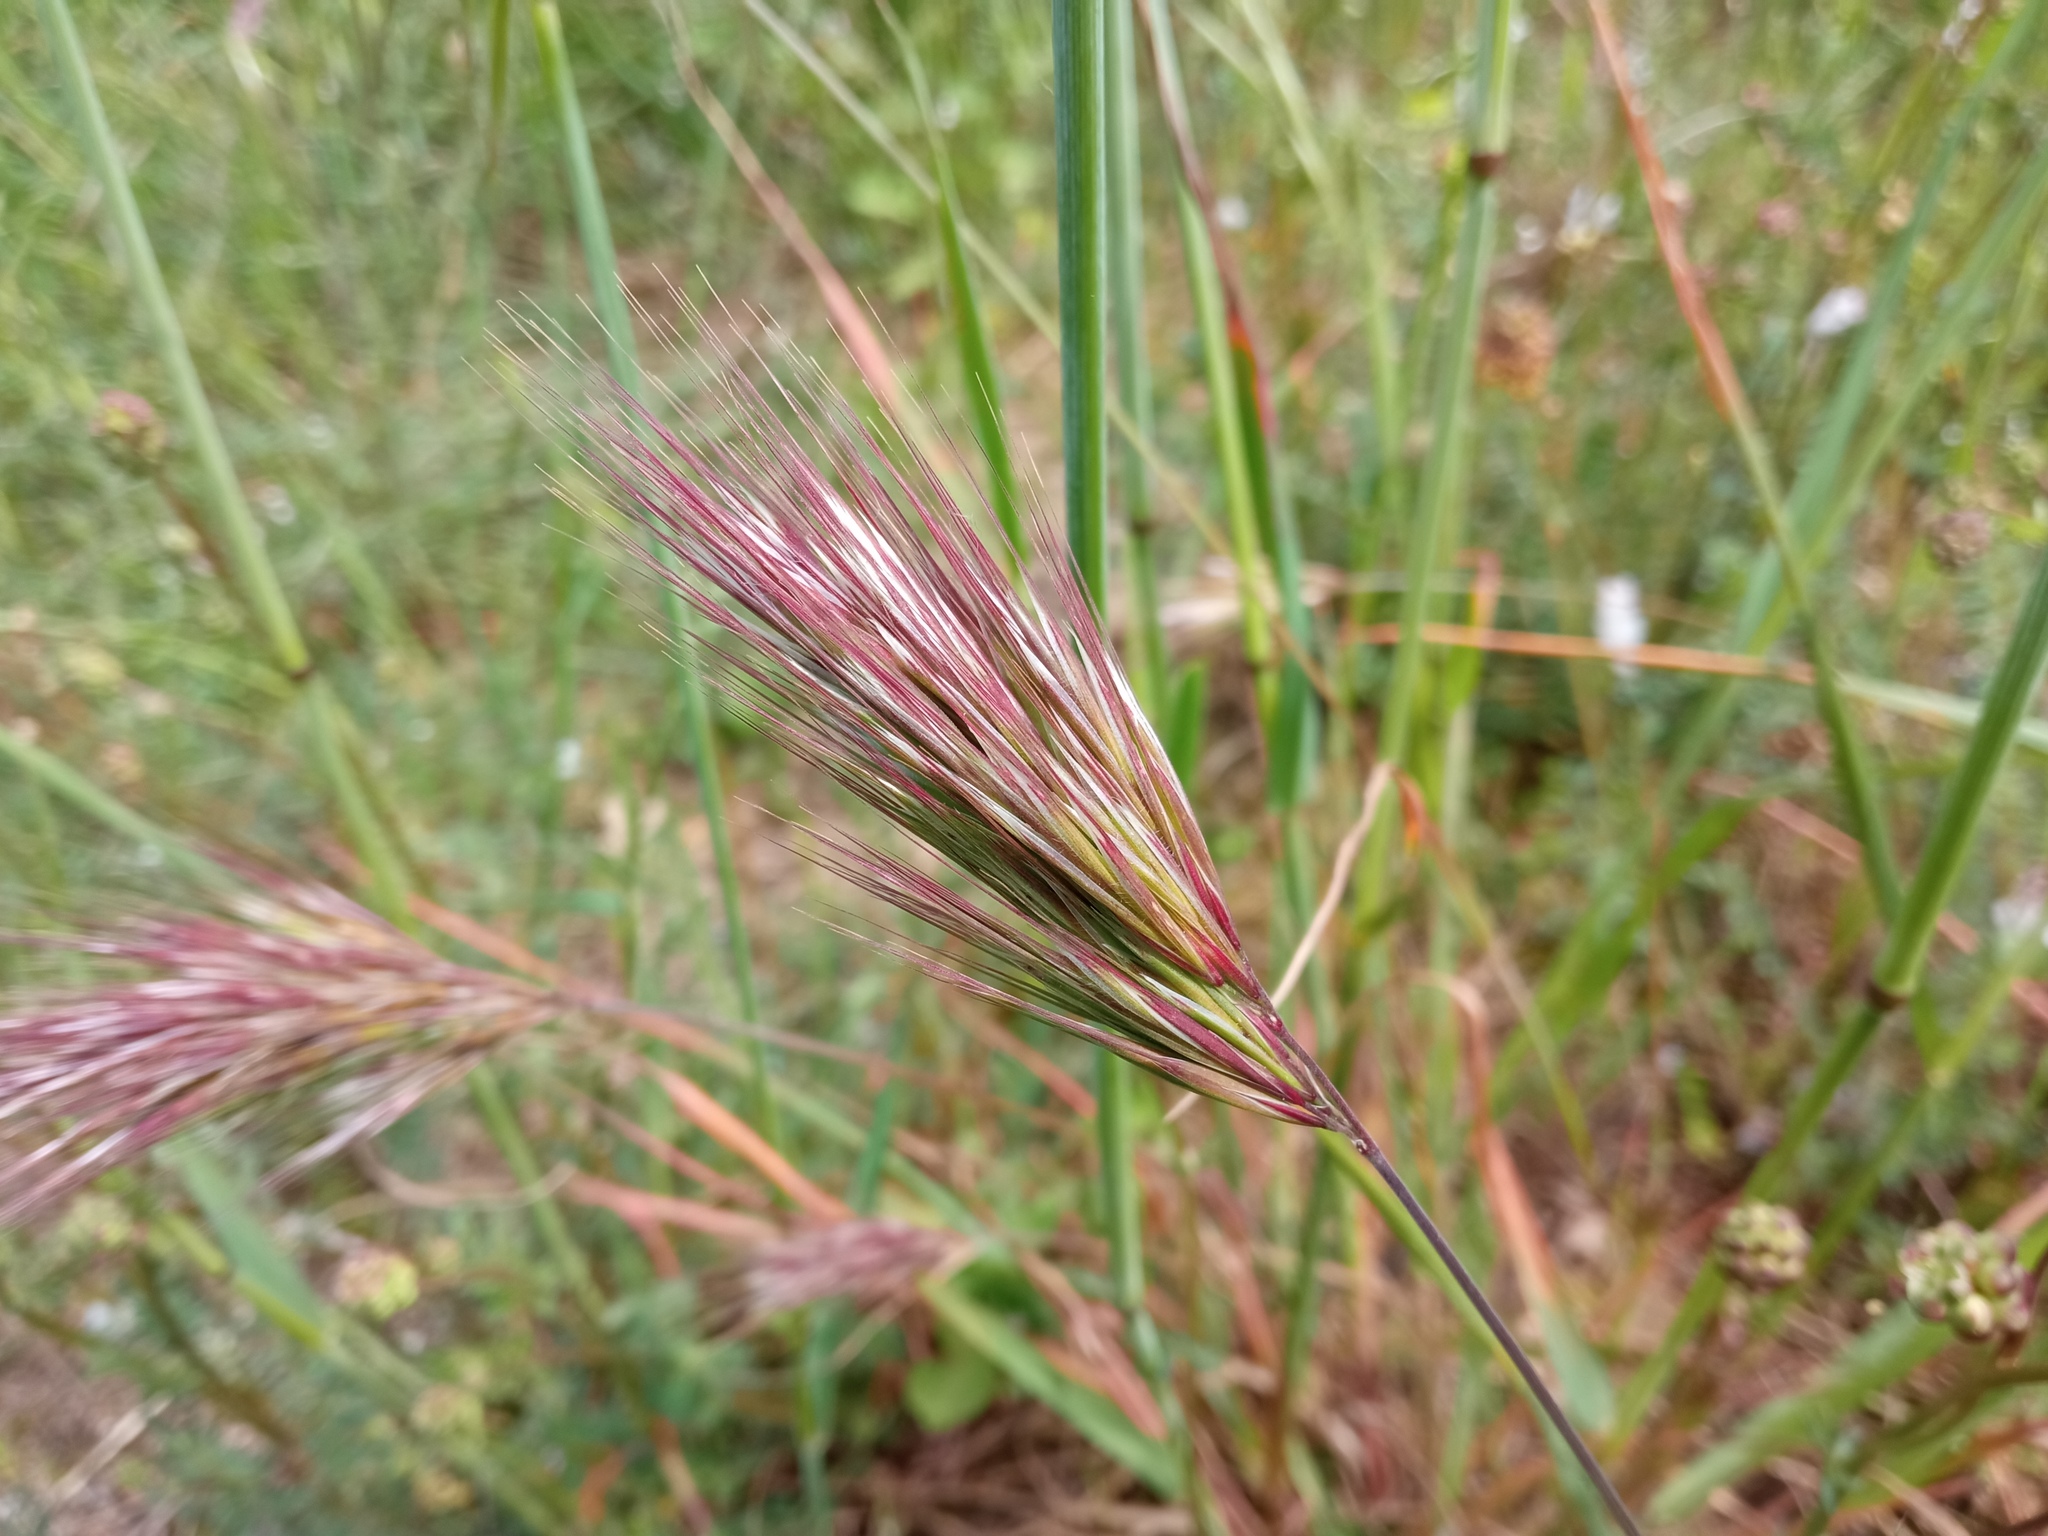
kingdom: Plantae
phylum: Tracheophyta
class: Liliopsida
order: Poales
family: Poaceae
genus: Bromus
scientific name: Bromus rubens
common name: Red brome
